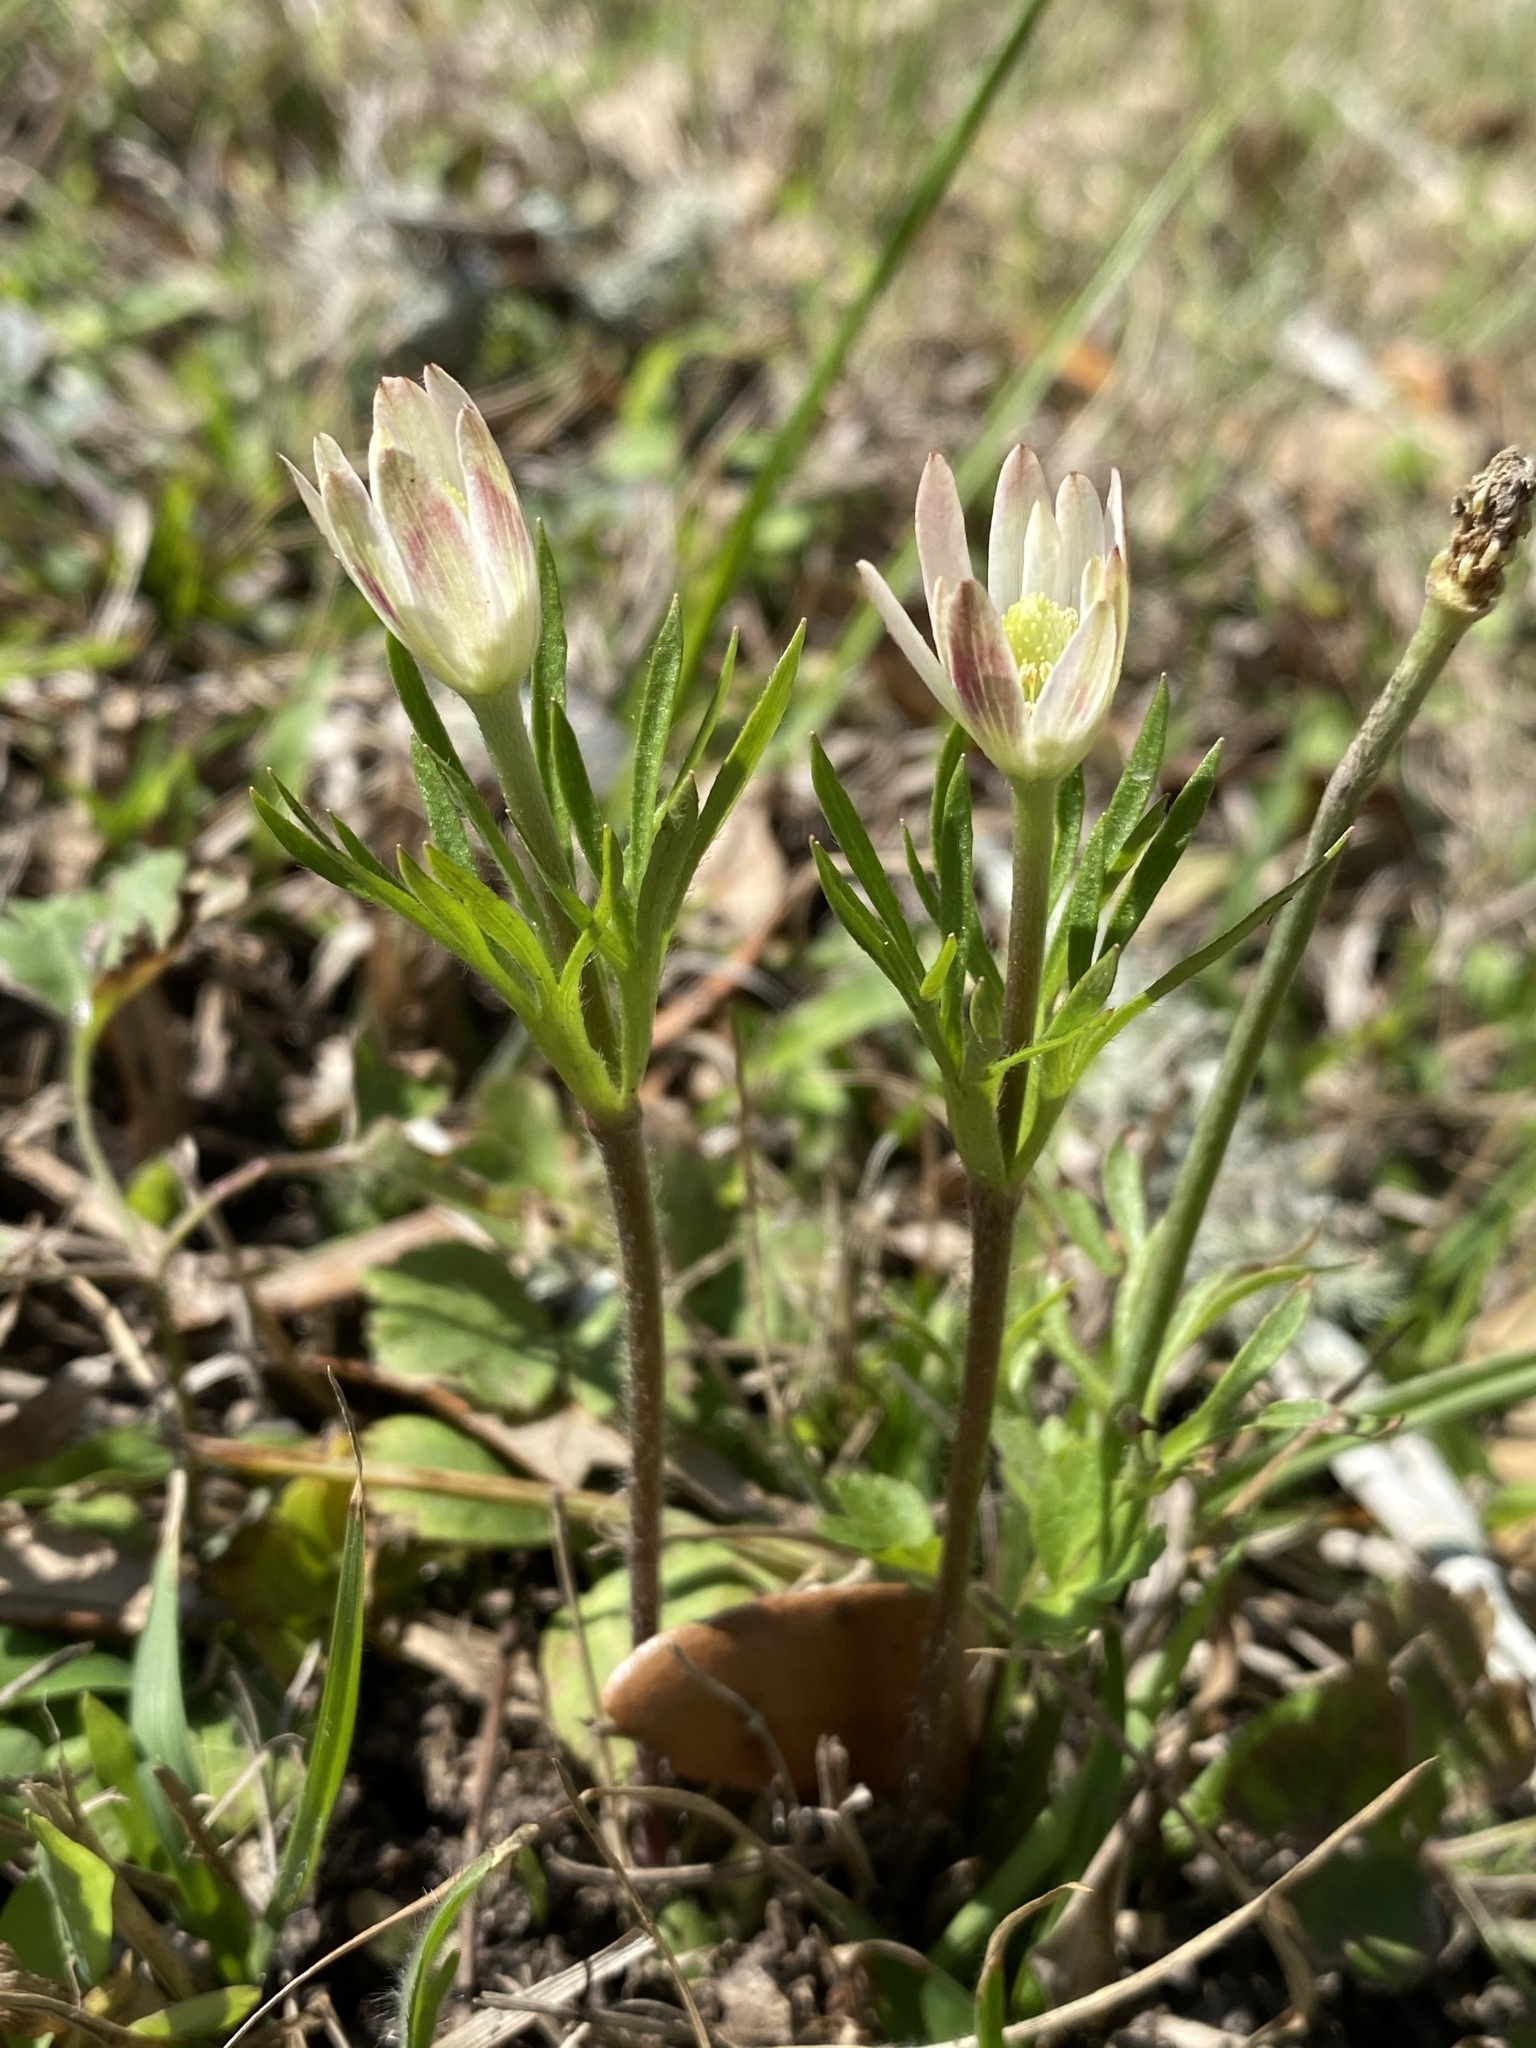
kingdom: Plantae
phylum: Tracheophyta
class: Magnoliopsida
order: Ranunculales
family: Ranunculaceae
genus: Anemone
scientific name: Anemone berlandieri
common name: Ten-petal anemone
